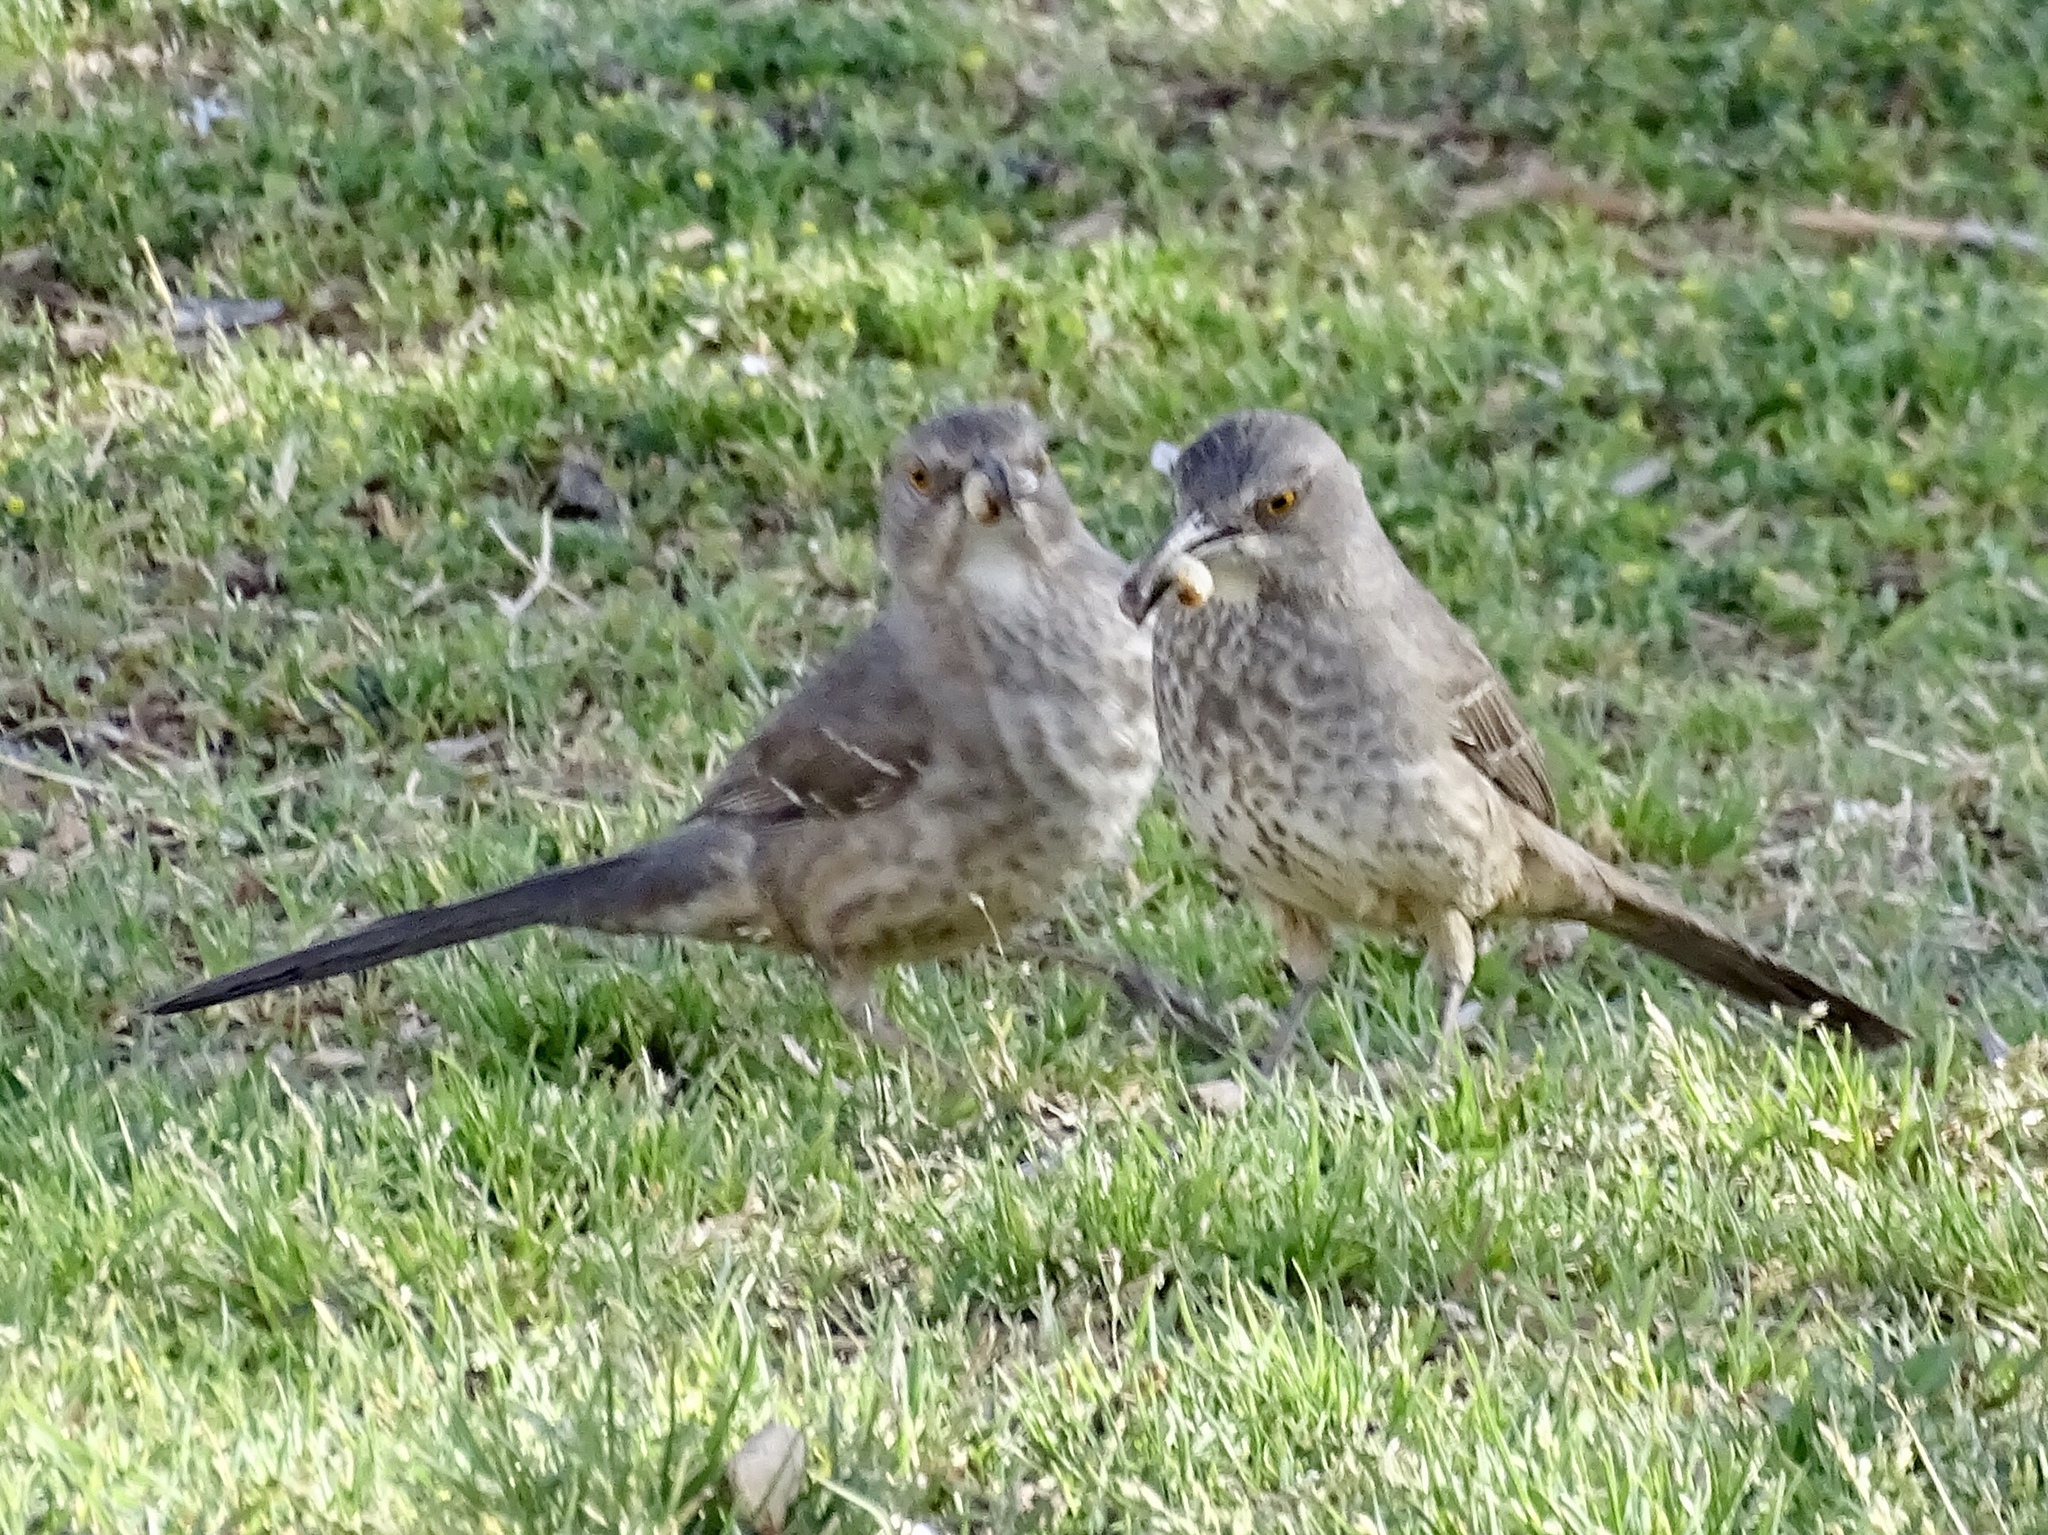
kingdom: Animalia
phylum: Chordata
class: Aves
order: Passeriformes
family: Mimidae
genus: Toxostoma
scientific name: Toxostoma curvirostre
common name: Curve-billed thrasher
